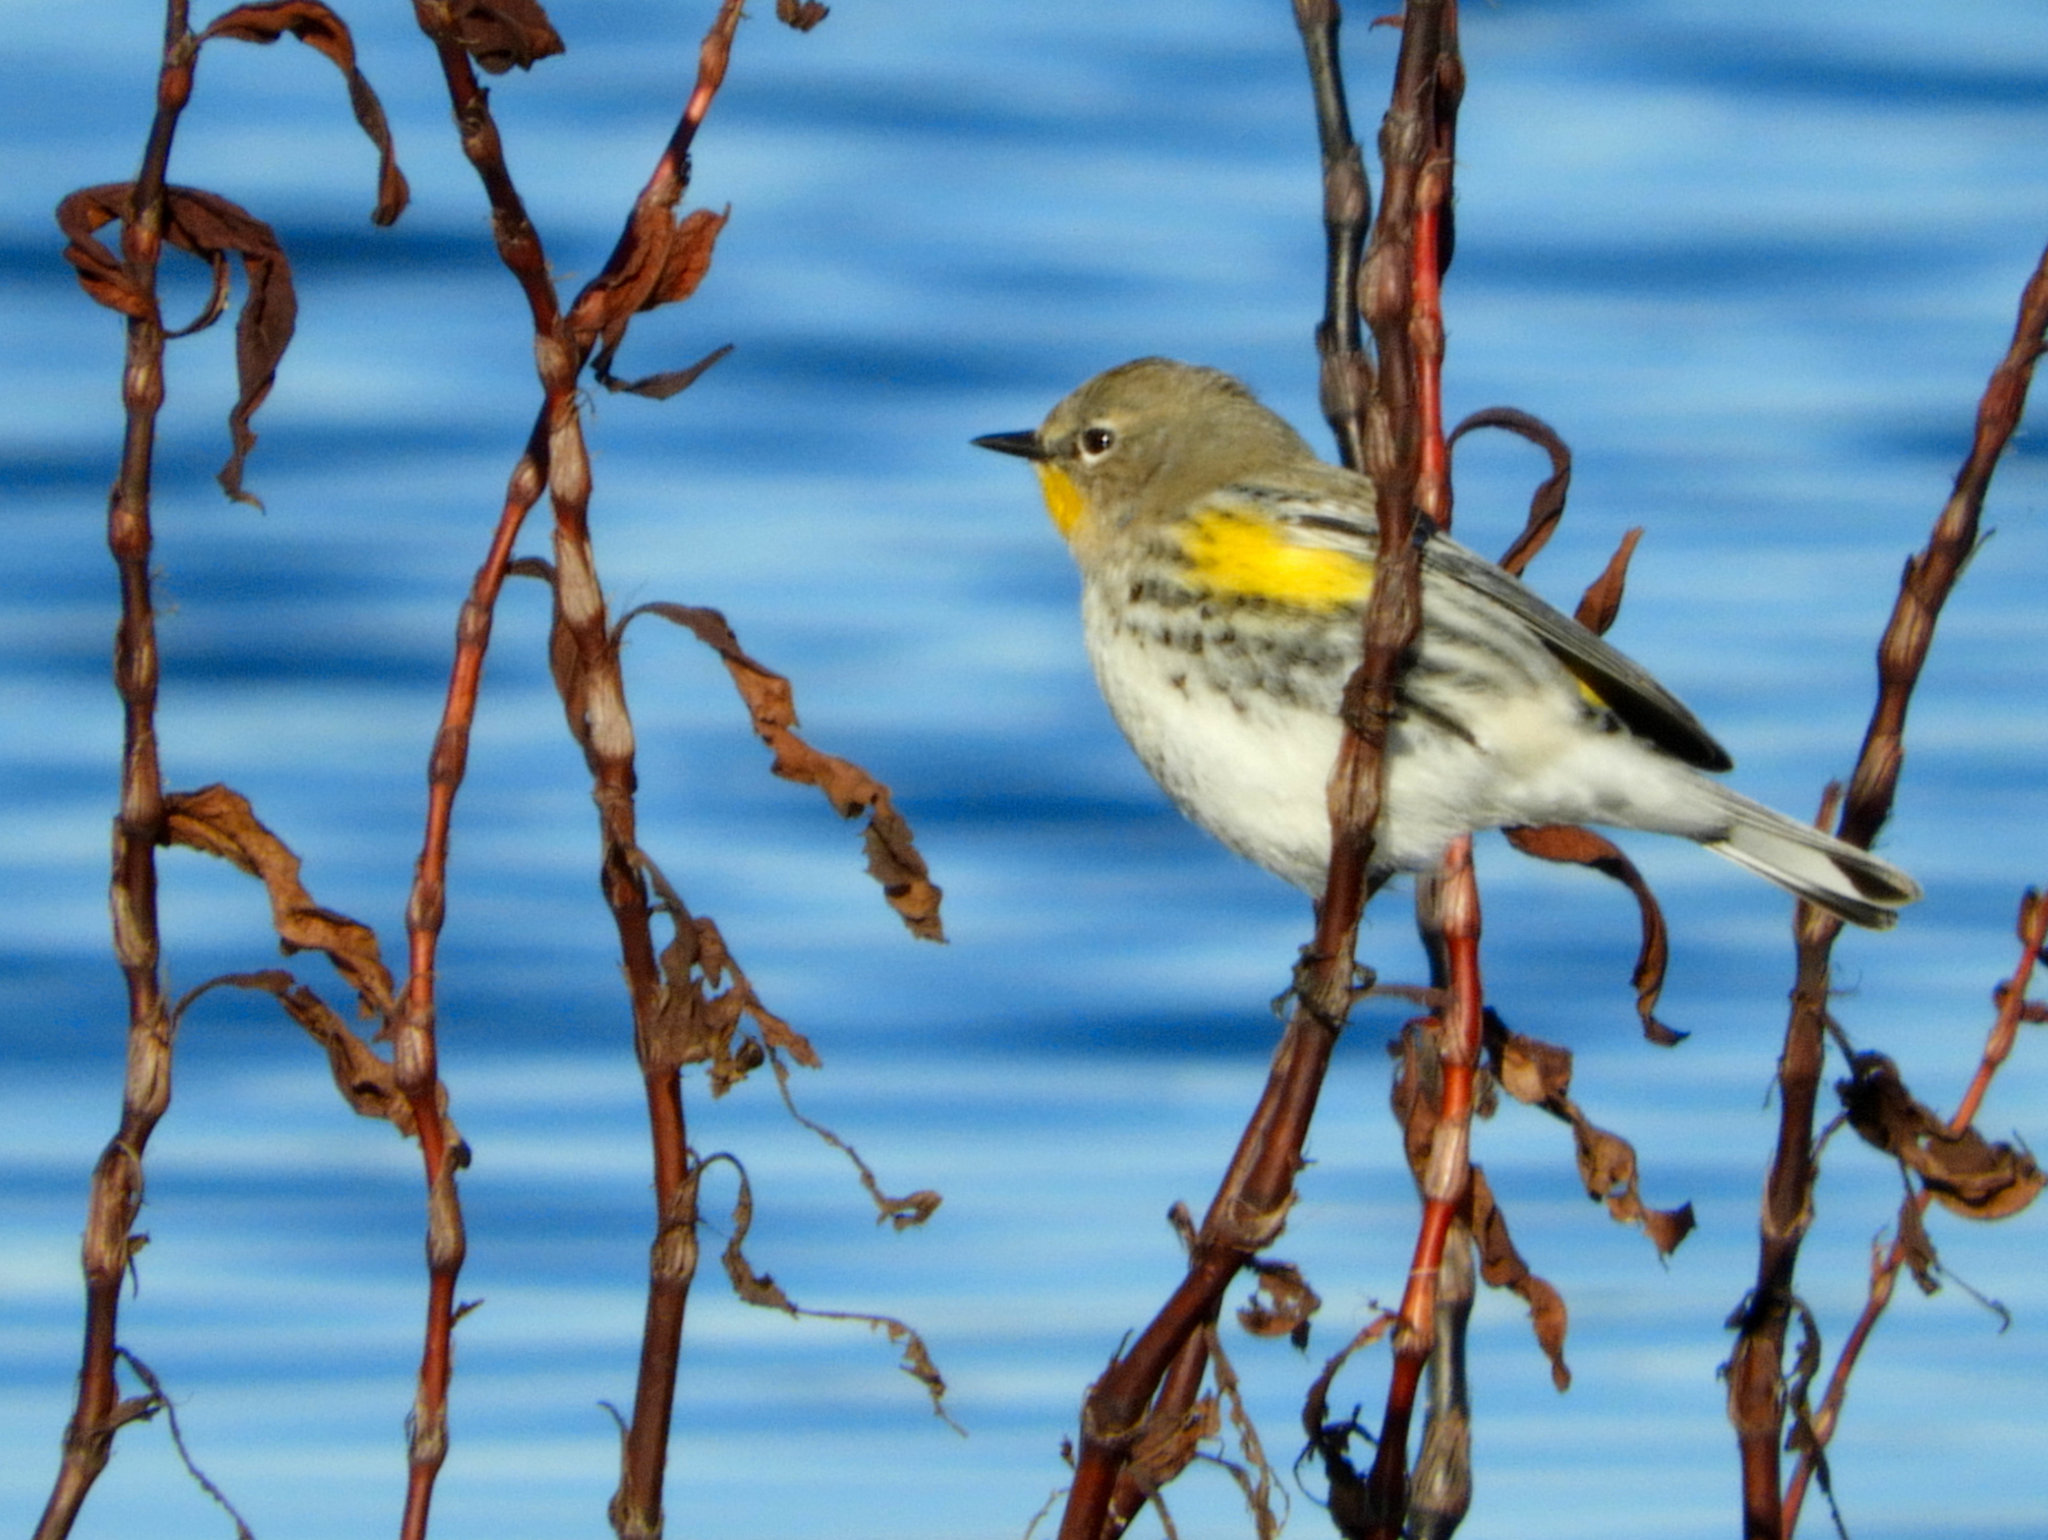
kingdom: Animalia
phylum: Chordata
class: Aves
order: Passeriformes
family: Parulidae
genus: Setophaga
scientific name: Setophaga coronata
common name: Myrtle warbler
